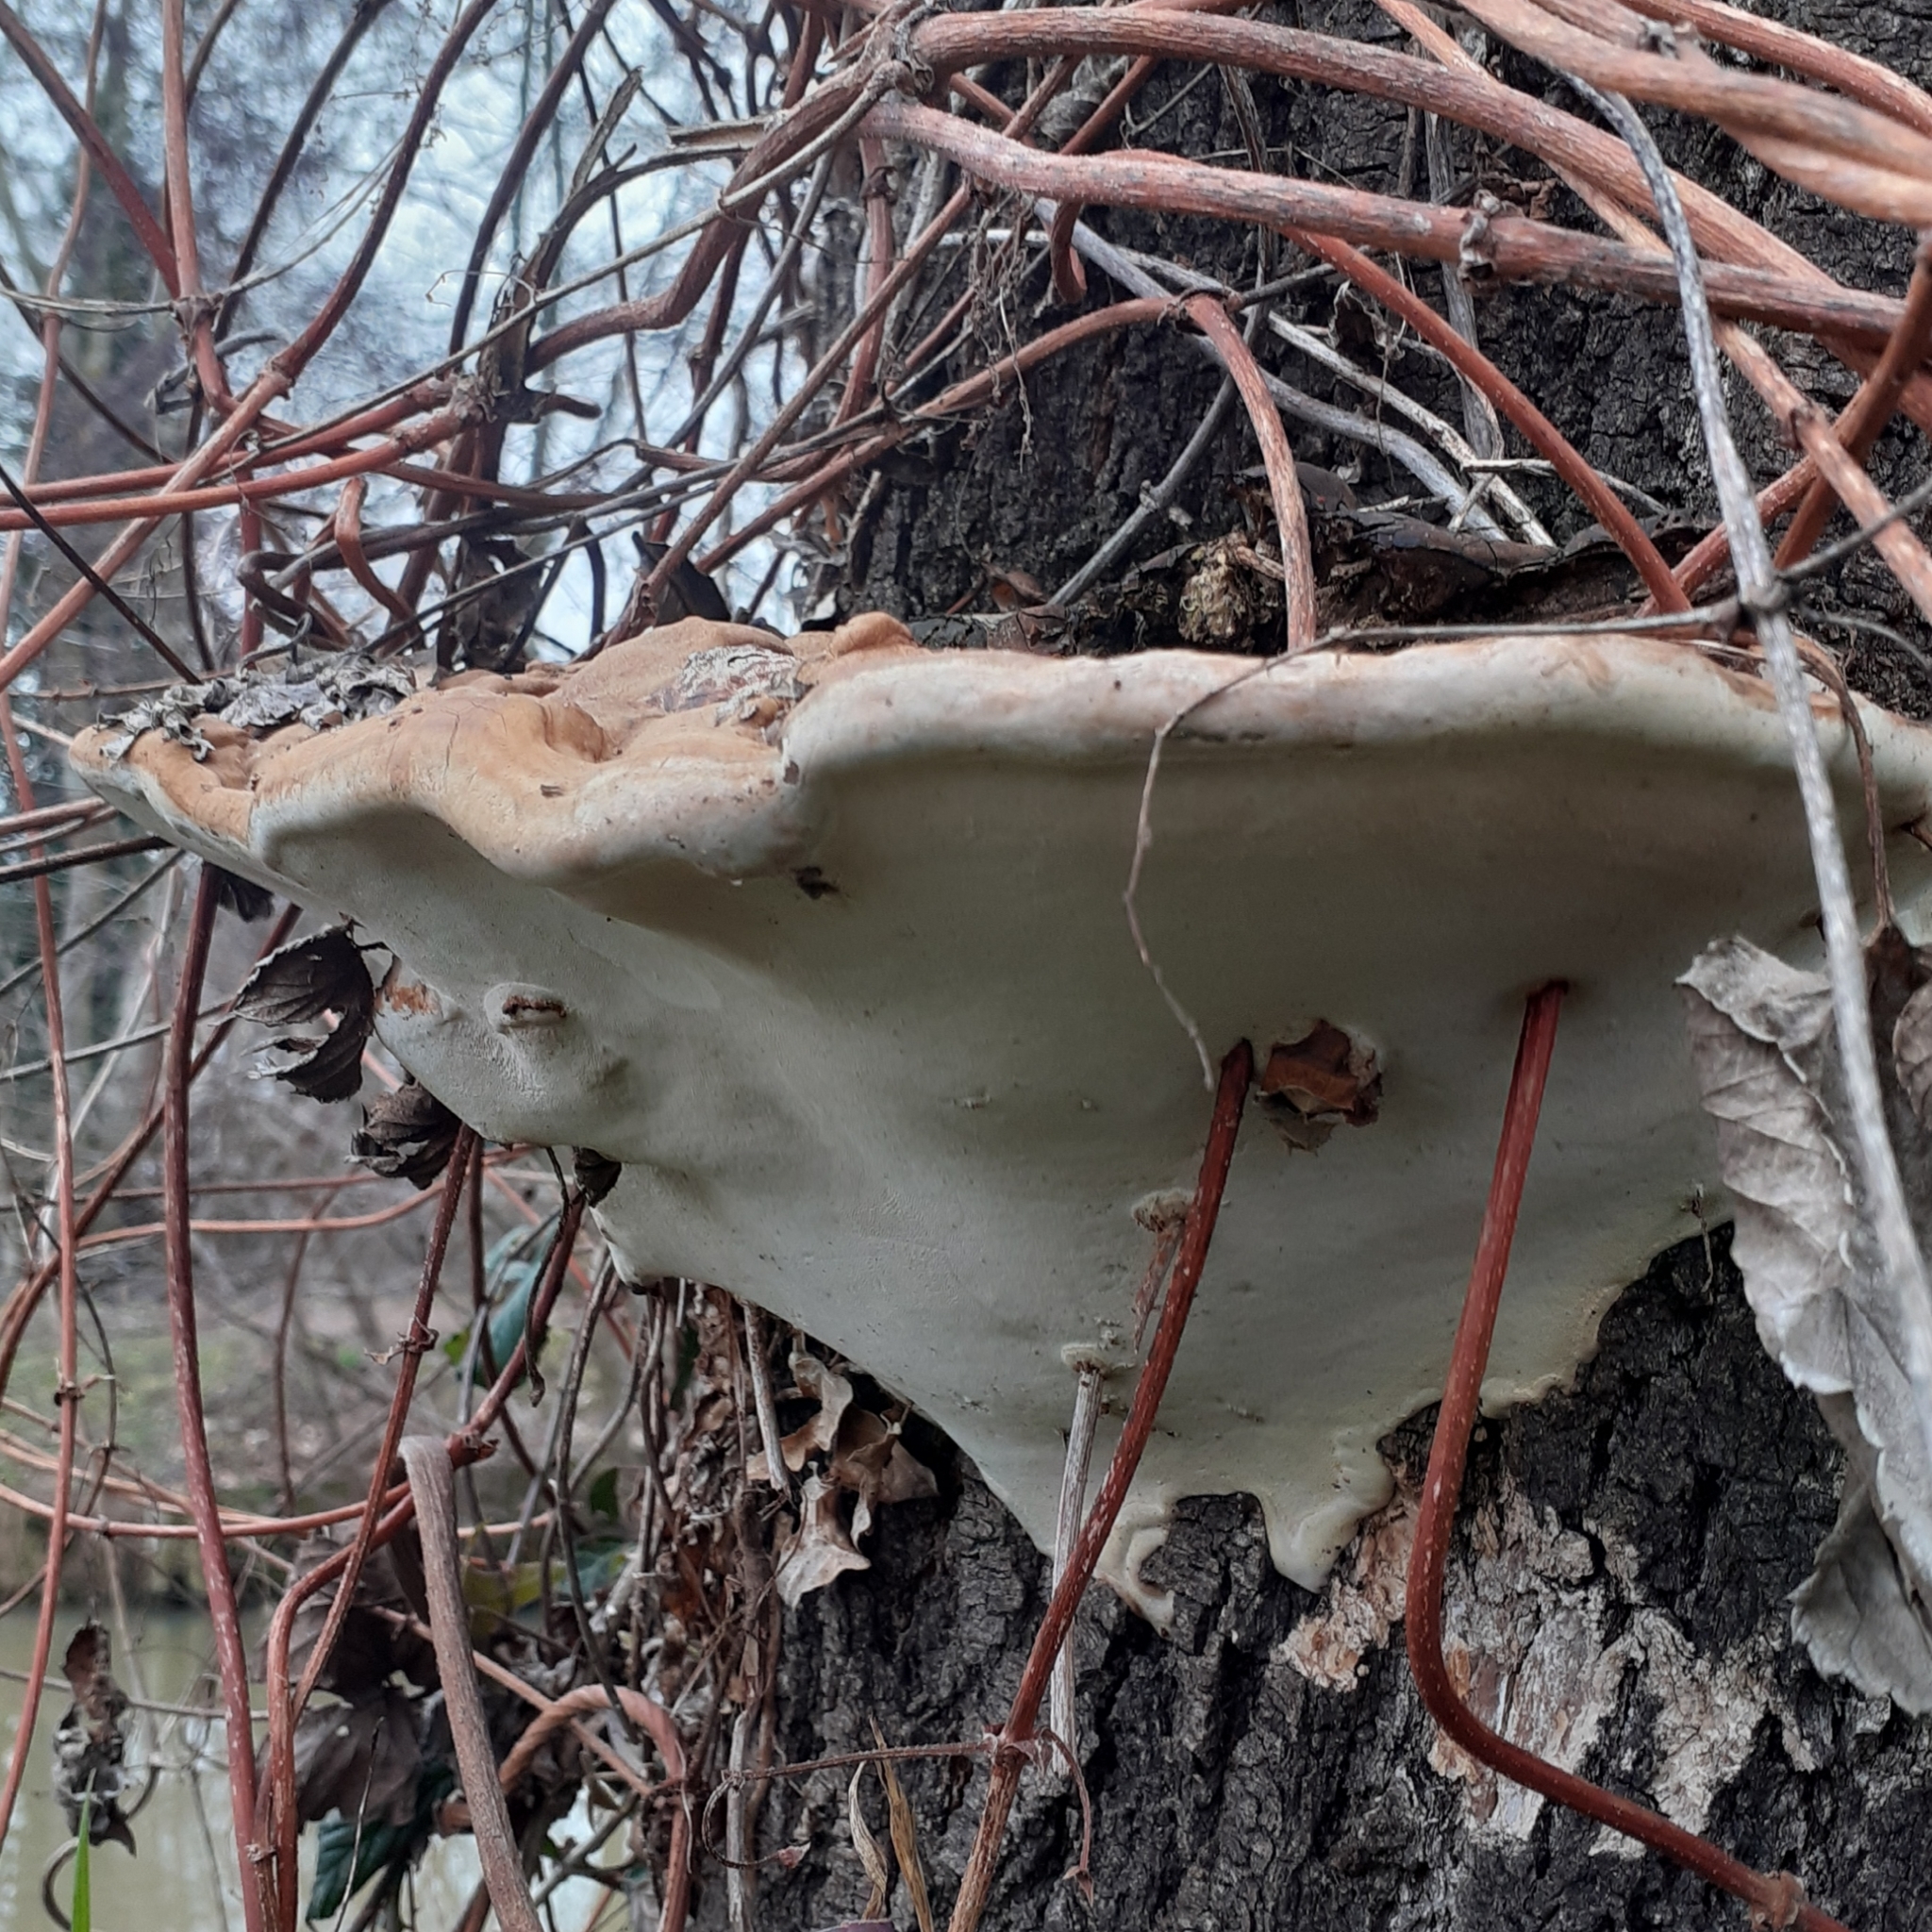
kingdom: Fungi
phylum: Basidiomycota
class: Agaricomycetes
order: Polyporales
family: Polyporaceae
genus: Ganoderma
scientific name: Ganoderma applanatum
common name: Artist's bracket
